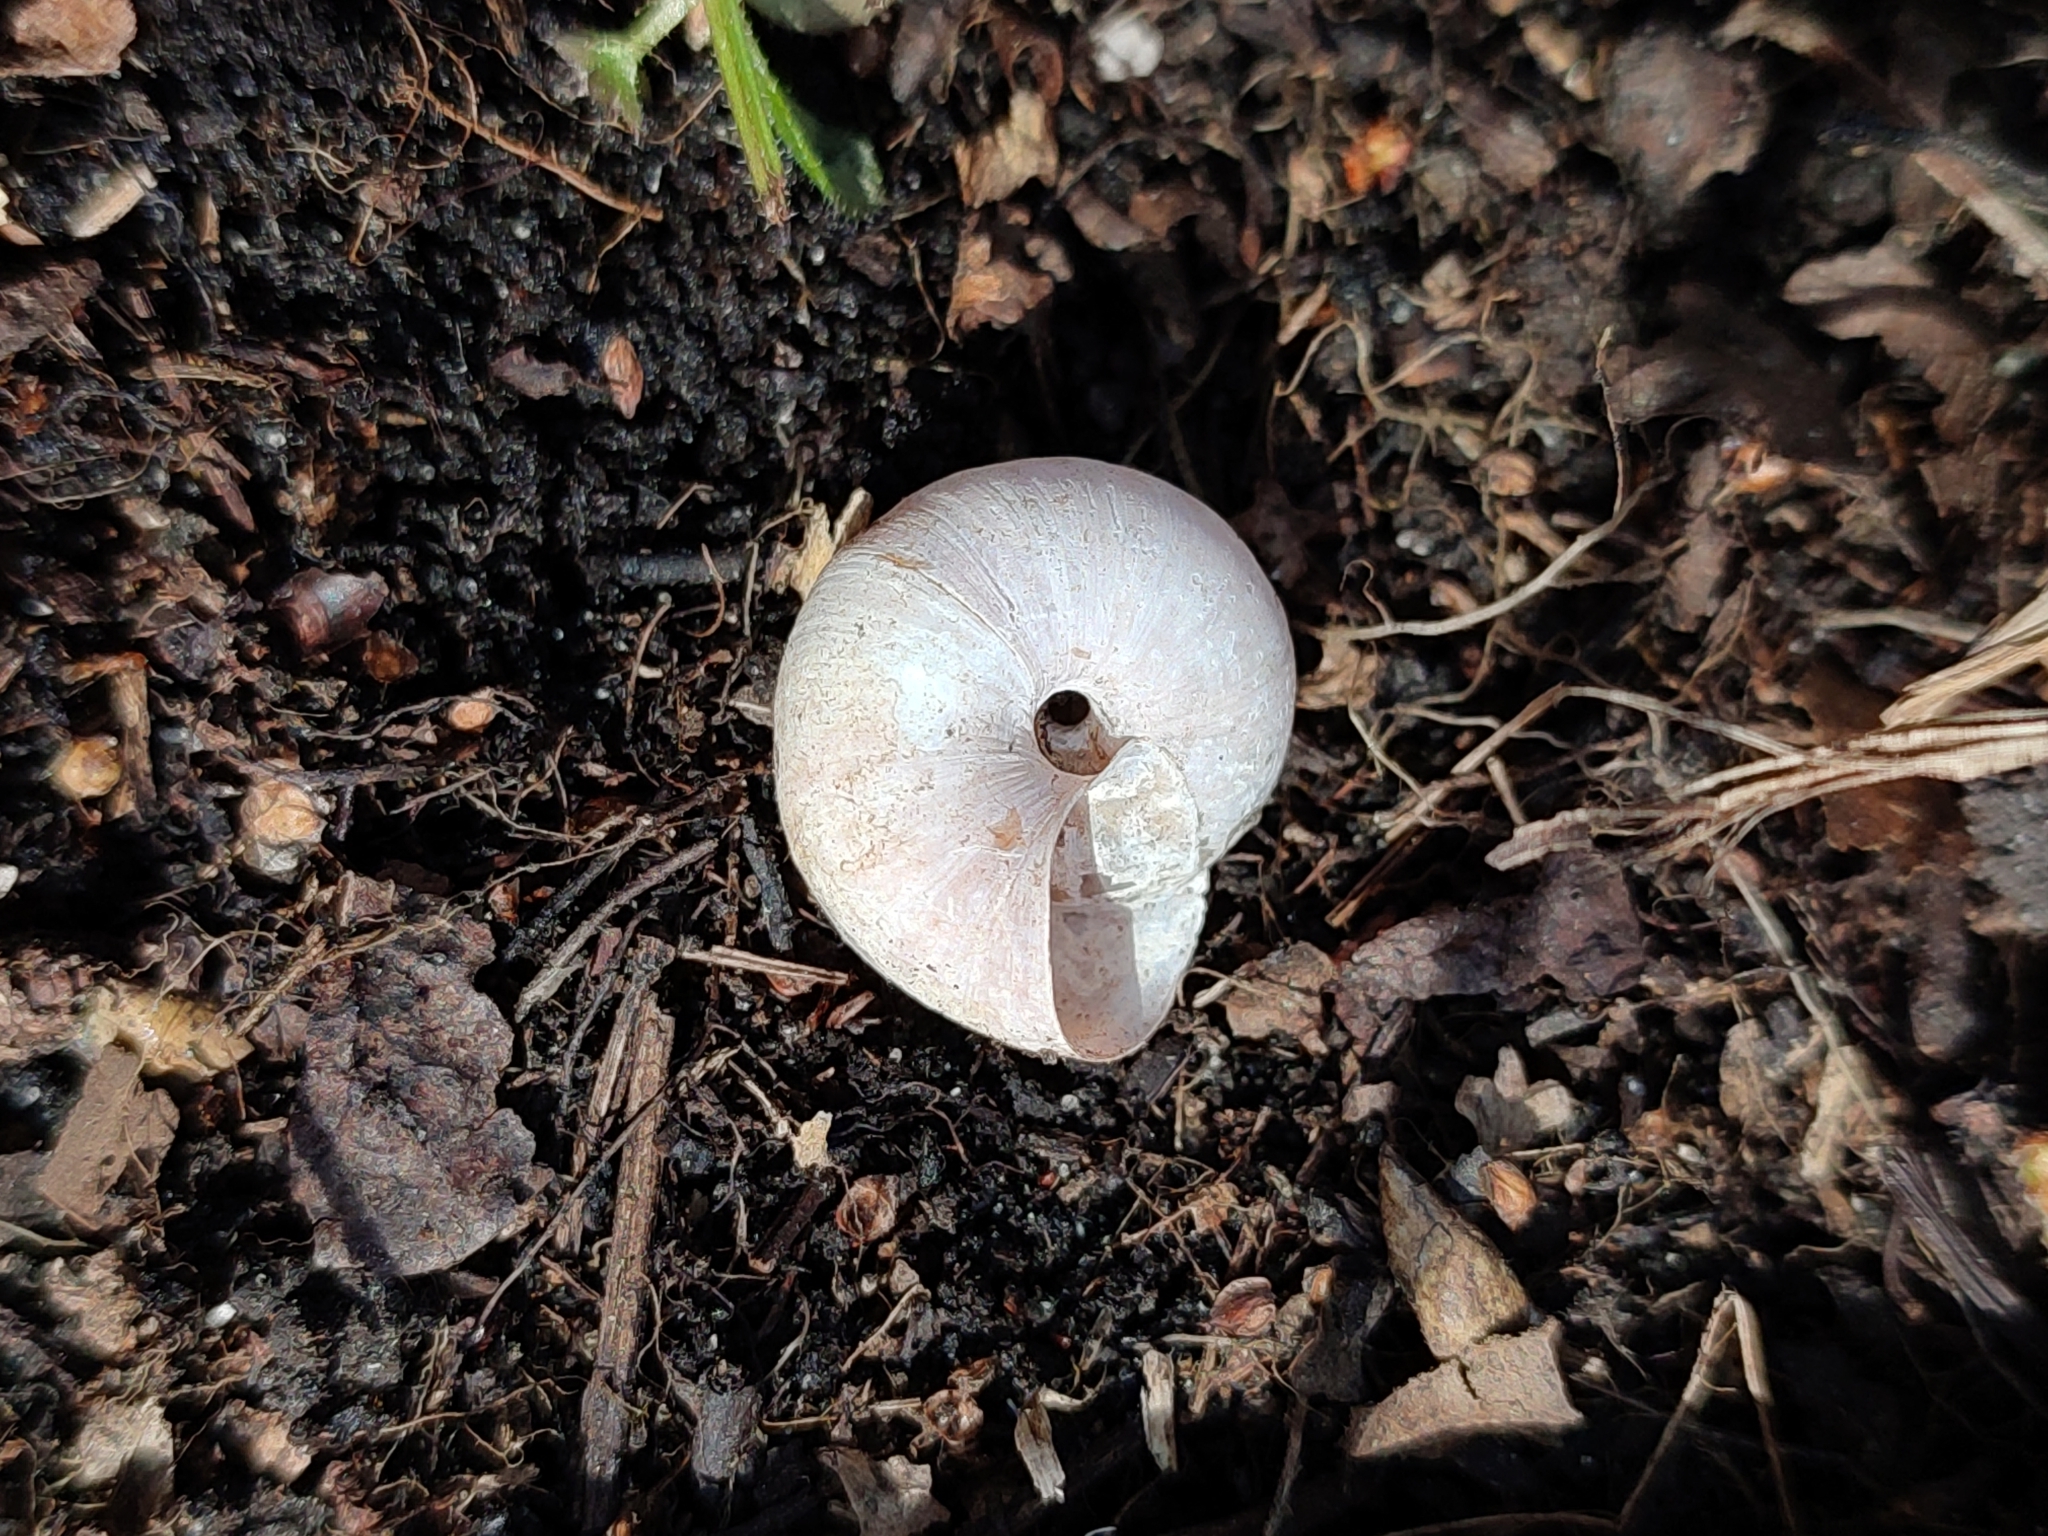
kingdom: Animalia
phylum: Mollusca
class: Gastropoda
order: Stylommatophora
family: Camaenidae
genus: Fruticicola
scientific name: Fruticicola fruticum
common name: Bush snail
